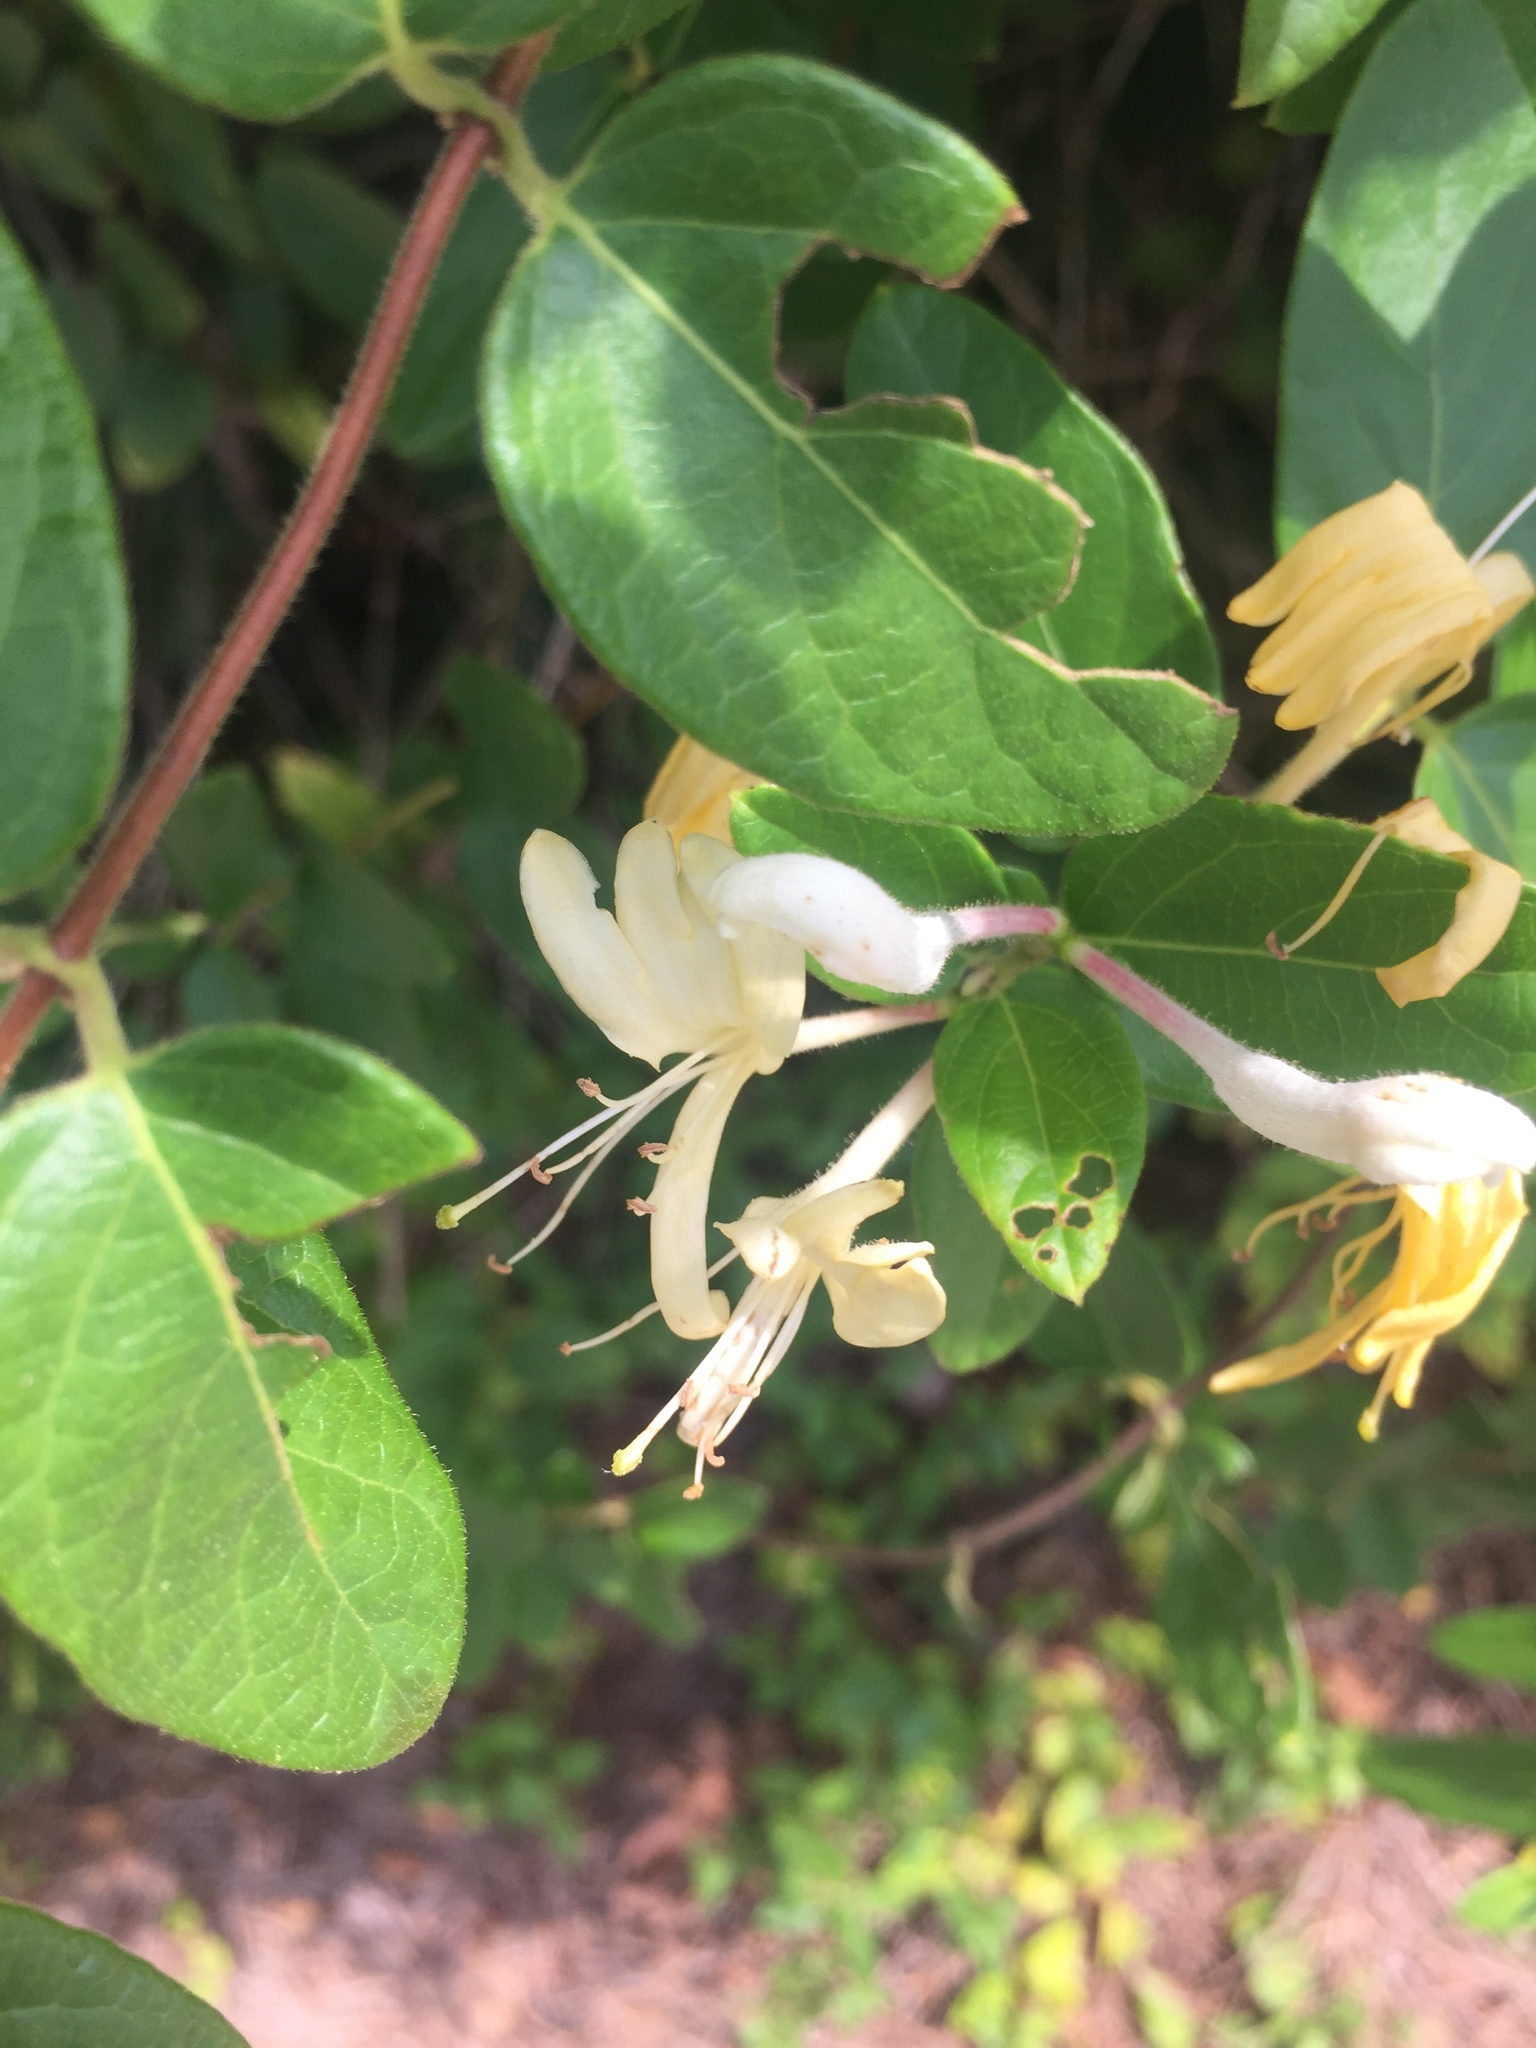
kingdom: Plantae
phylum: Tracheophyta
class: Magnoliopsida
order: Dipsacales
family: Caprifoliaceae
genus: Lonicera
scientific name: Lonicera japonica
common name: Japanese honeysuckle
